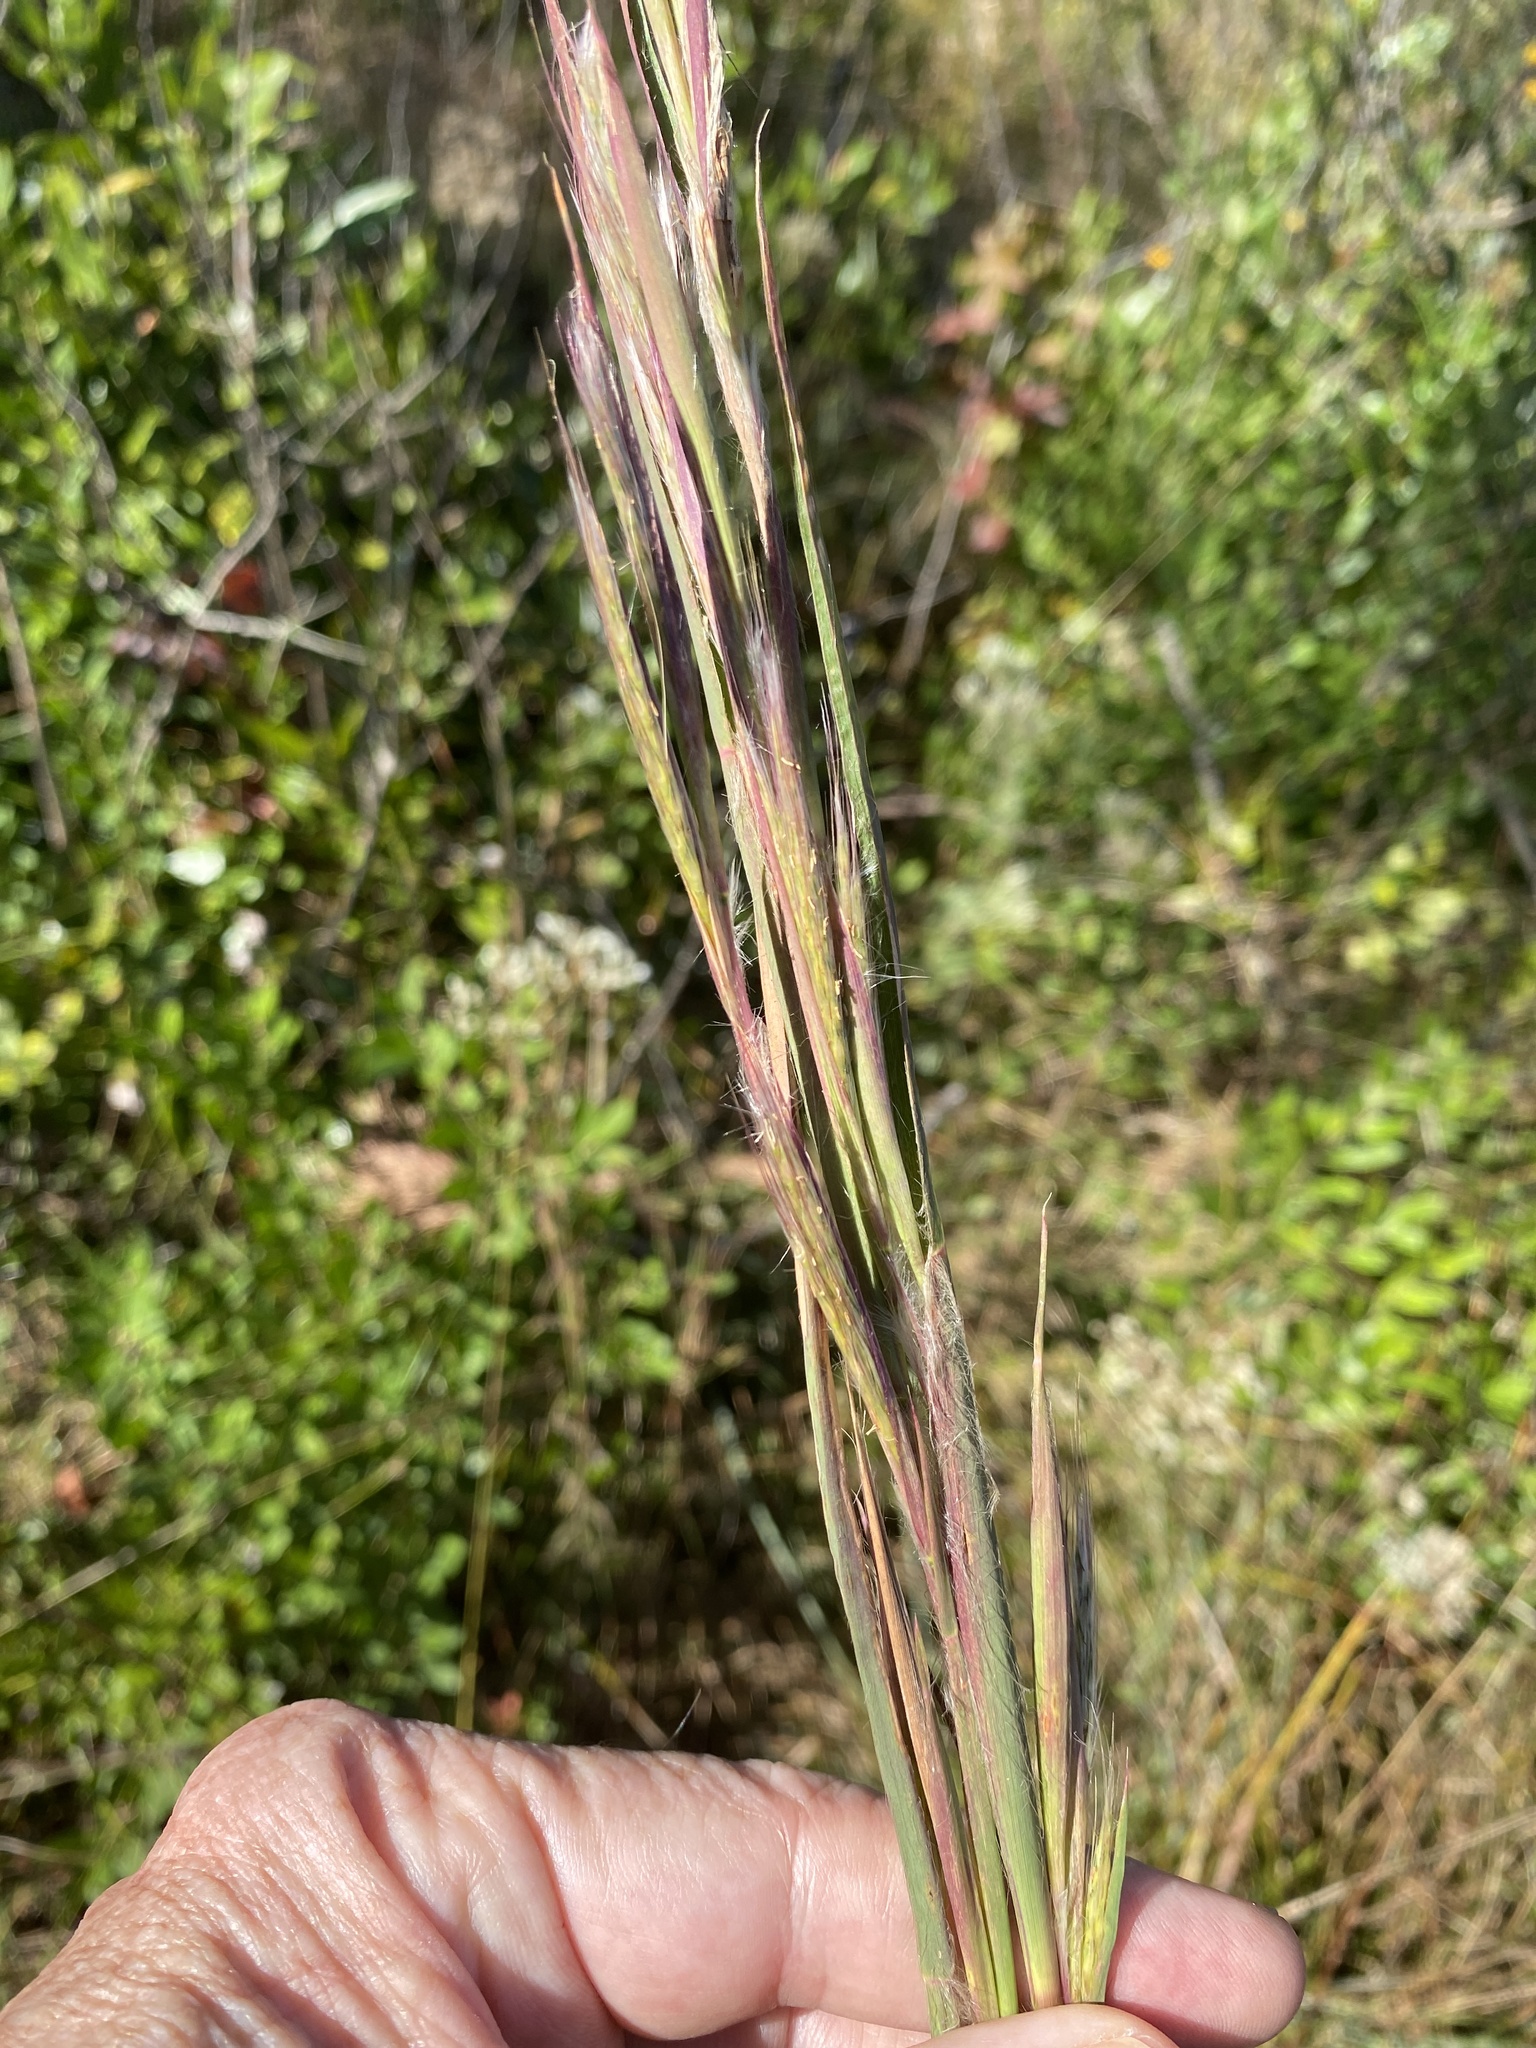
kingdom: Plantae
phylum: Tracheophyta
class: Liliopsida
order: Poales
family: Poaceae
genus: Andropogon
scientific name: Andropogon mohrii
